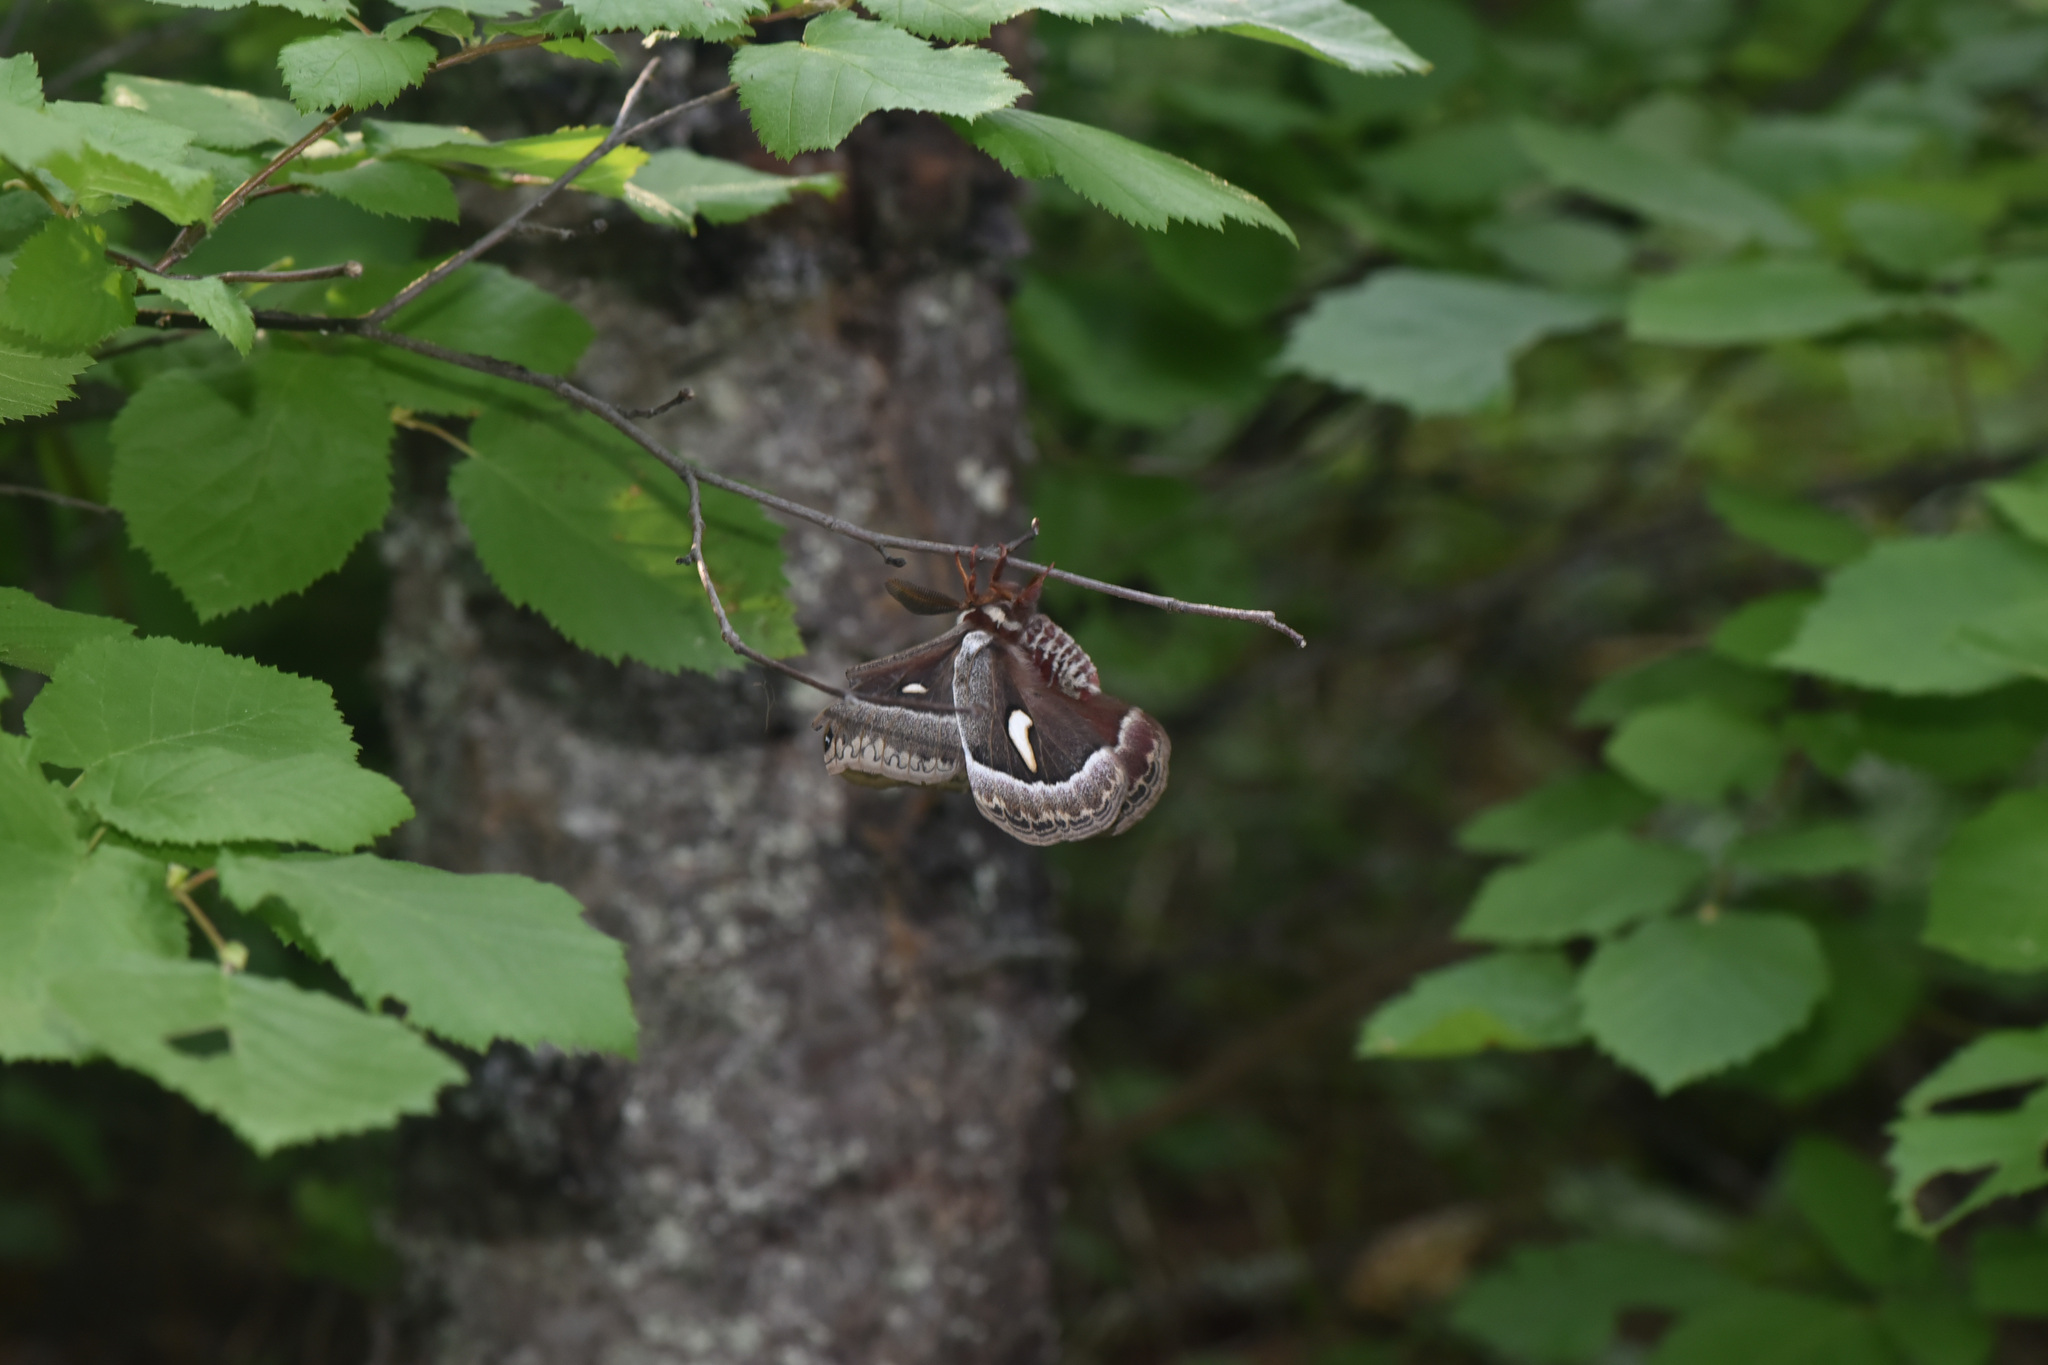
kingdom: Animalia
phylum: Arthropoda
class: Insecta
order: Lepidoptera
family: Saturniidae
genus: Hyalophora
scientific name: Hyalophora euryalus
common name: Ceanothus silkmoth
